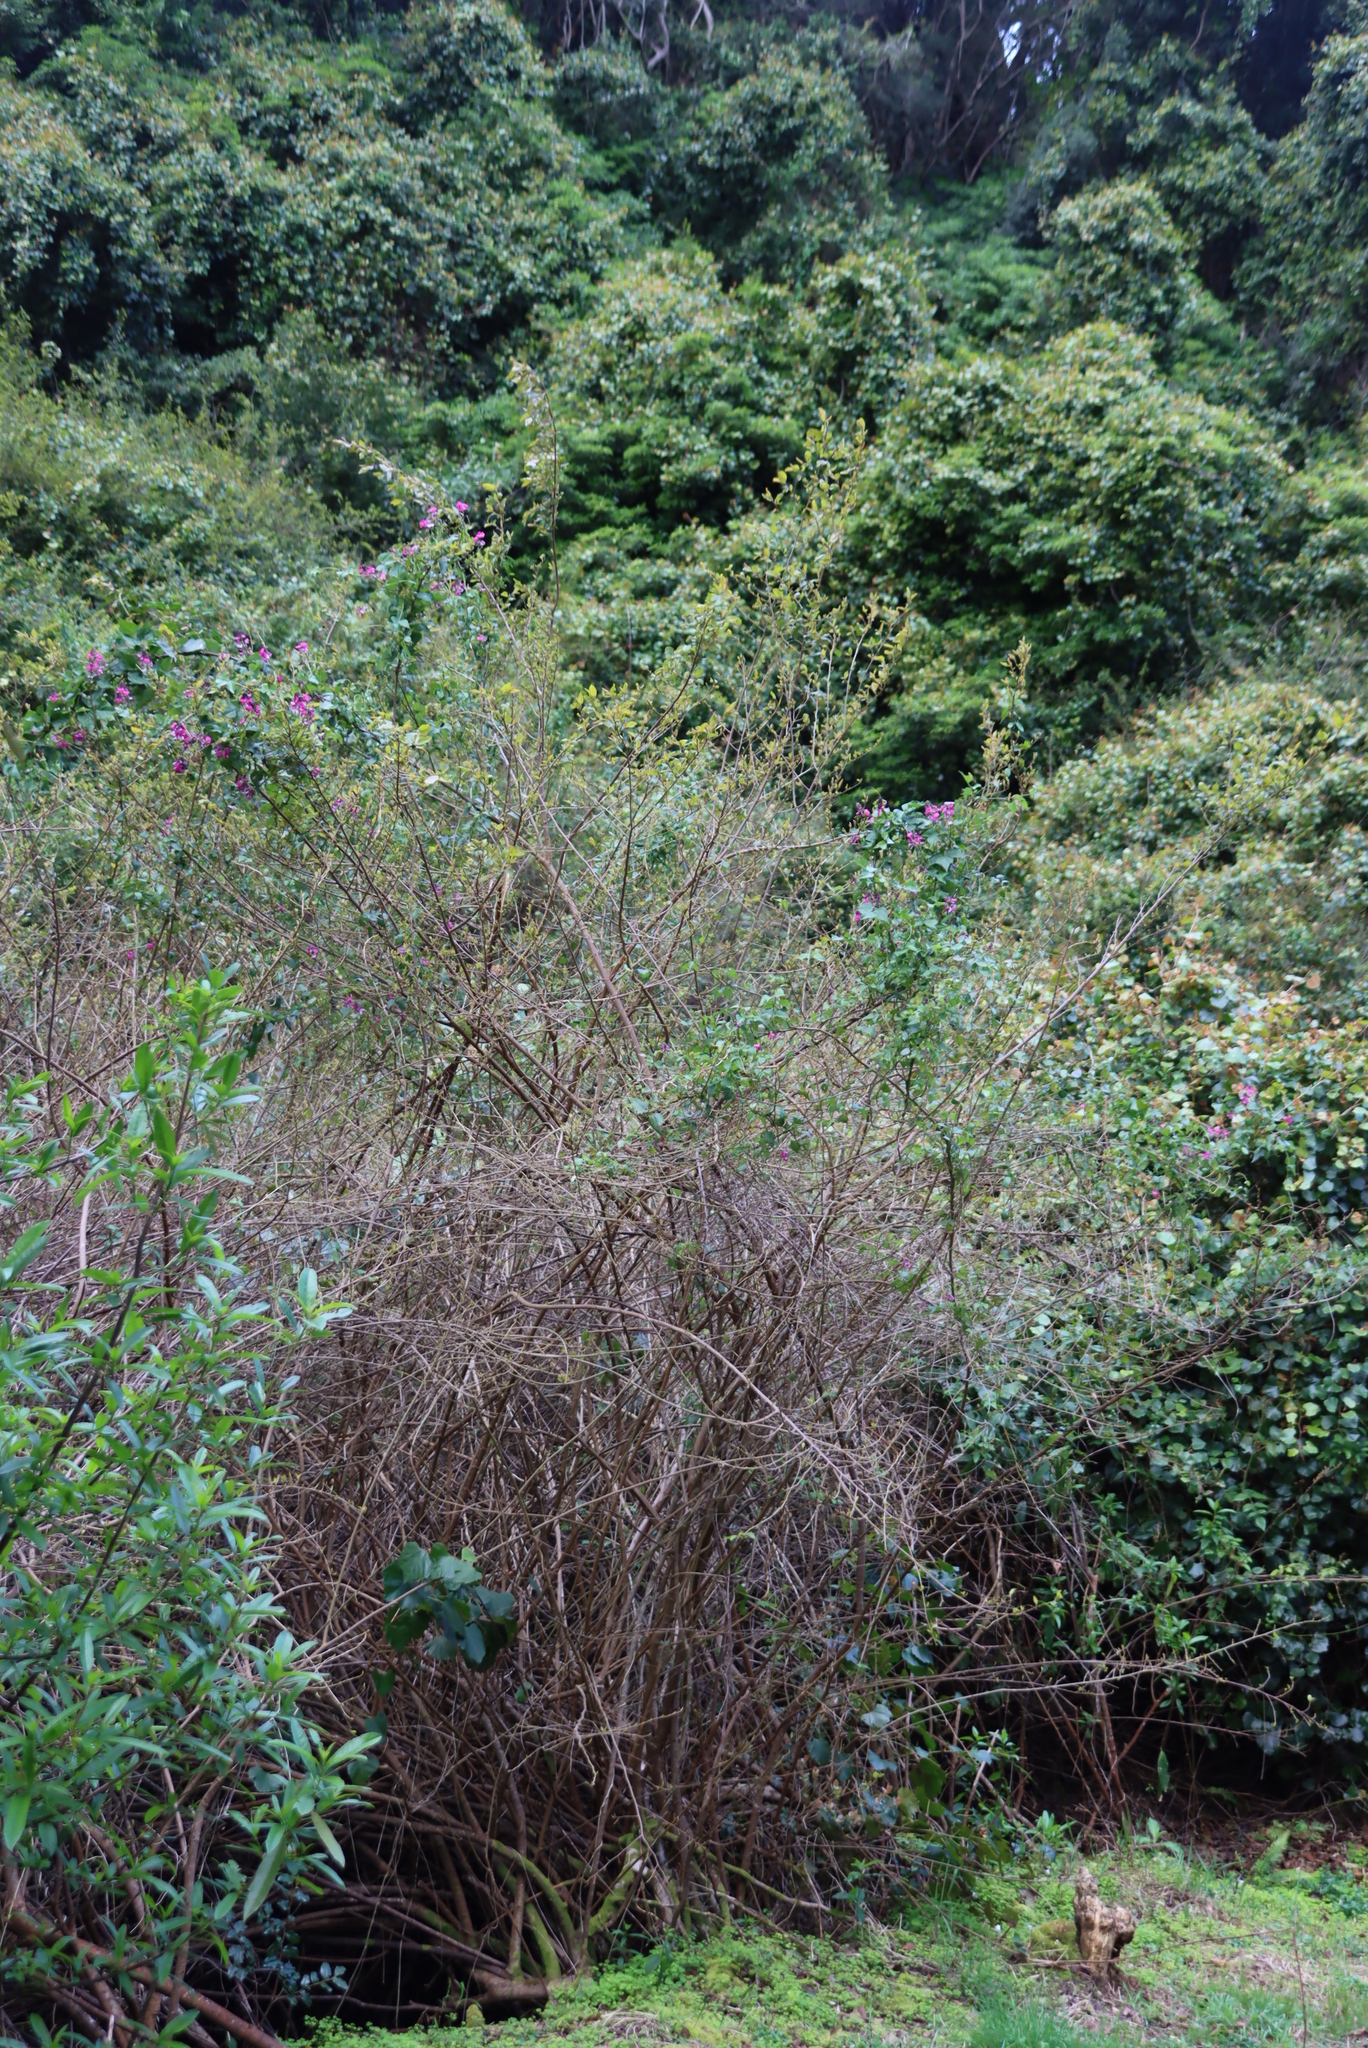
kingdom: Plantae
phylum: Tracheophyta
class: Magnoliopsida
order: Fabales
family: Fabaceae
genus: Dipogon
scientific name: Dipogon lignosus
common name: Okie bean
